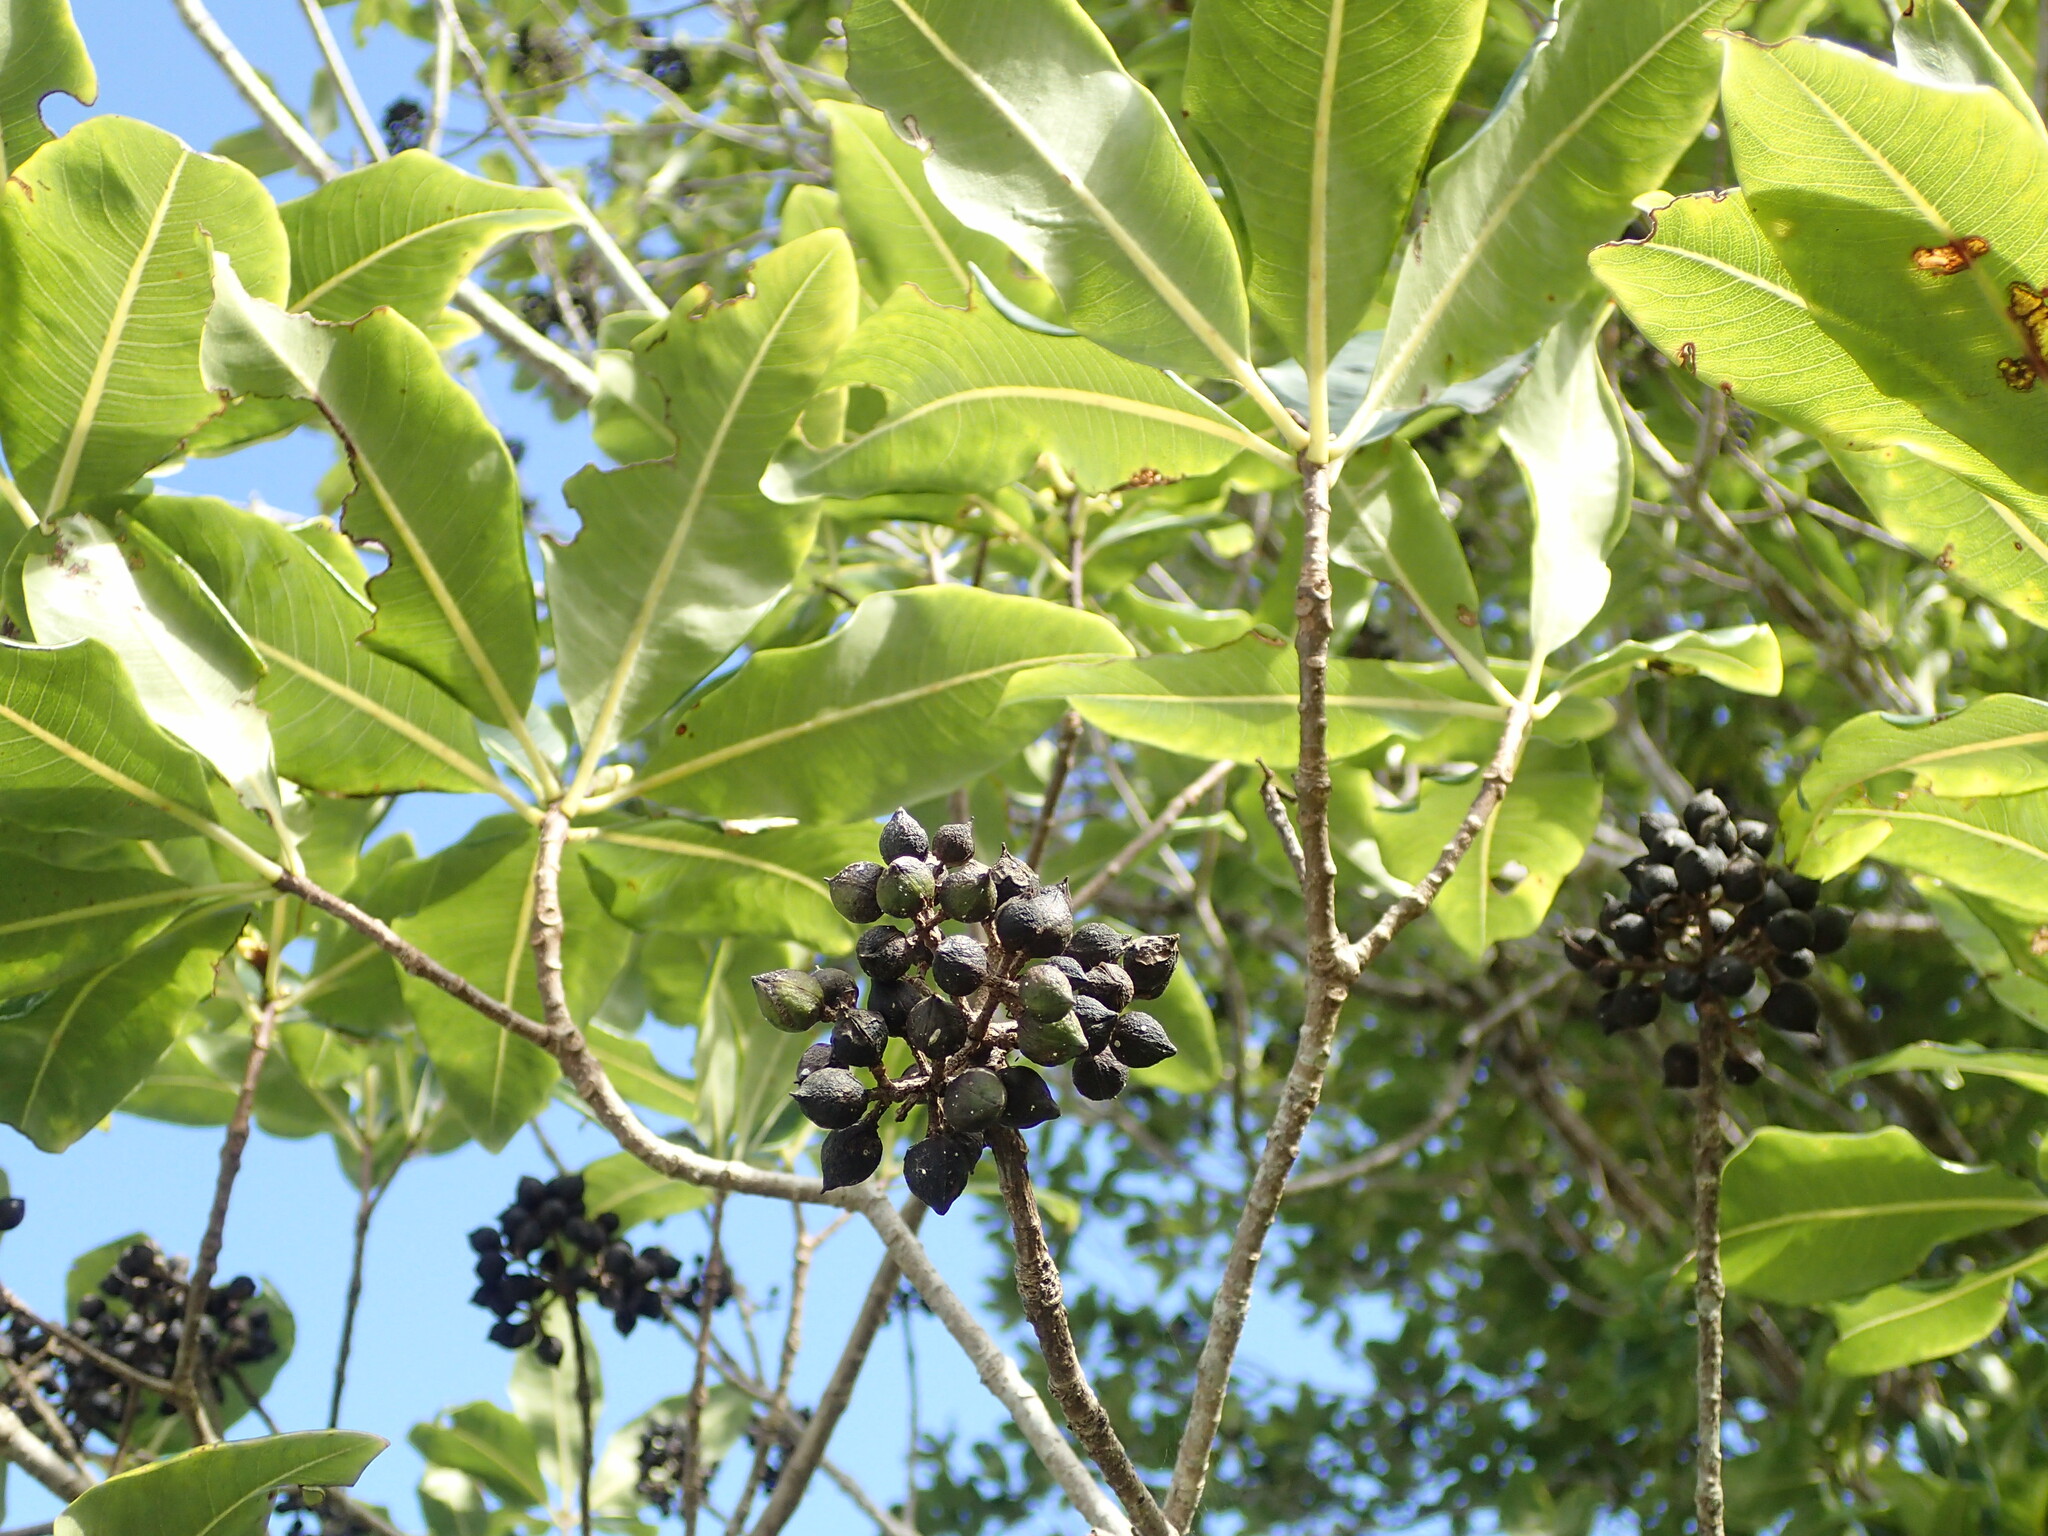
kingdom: Plantae
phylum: Tracheophyta
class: Magnoliopsida
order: Apiales
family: Pittosporaceae
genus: Pittosporum
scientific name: Pittosporum eugenioides
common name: Lemonwood
